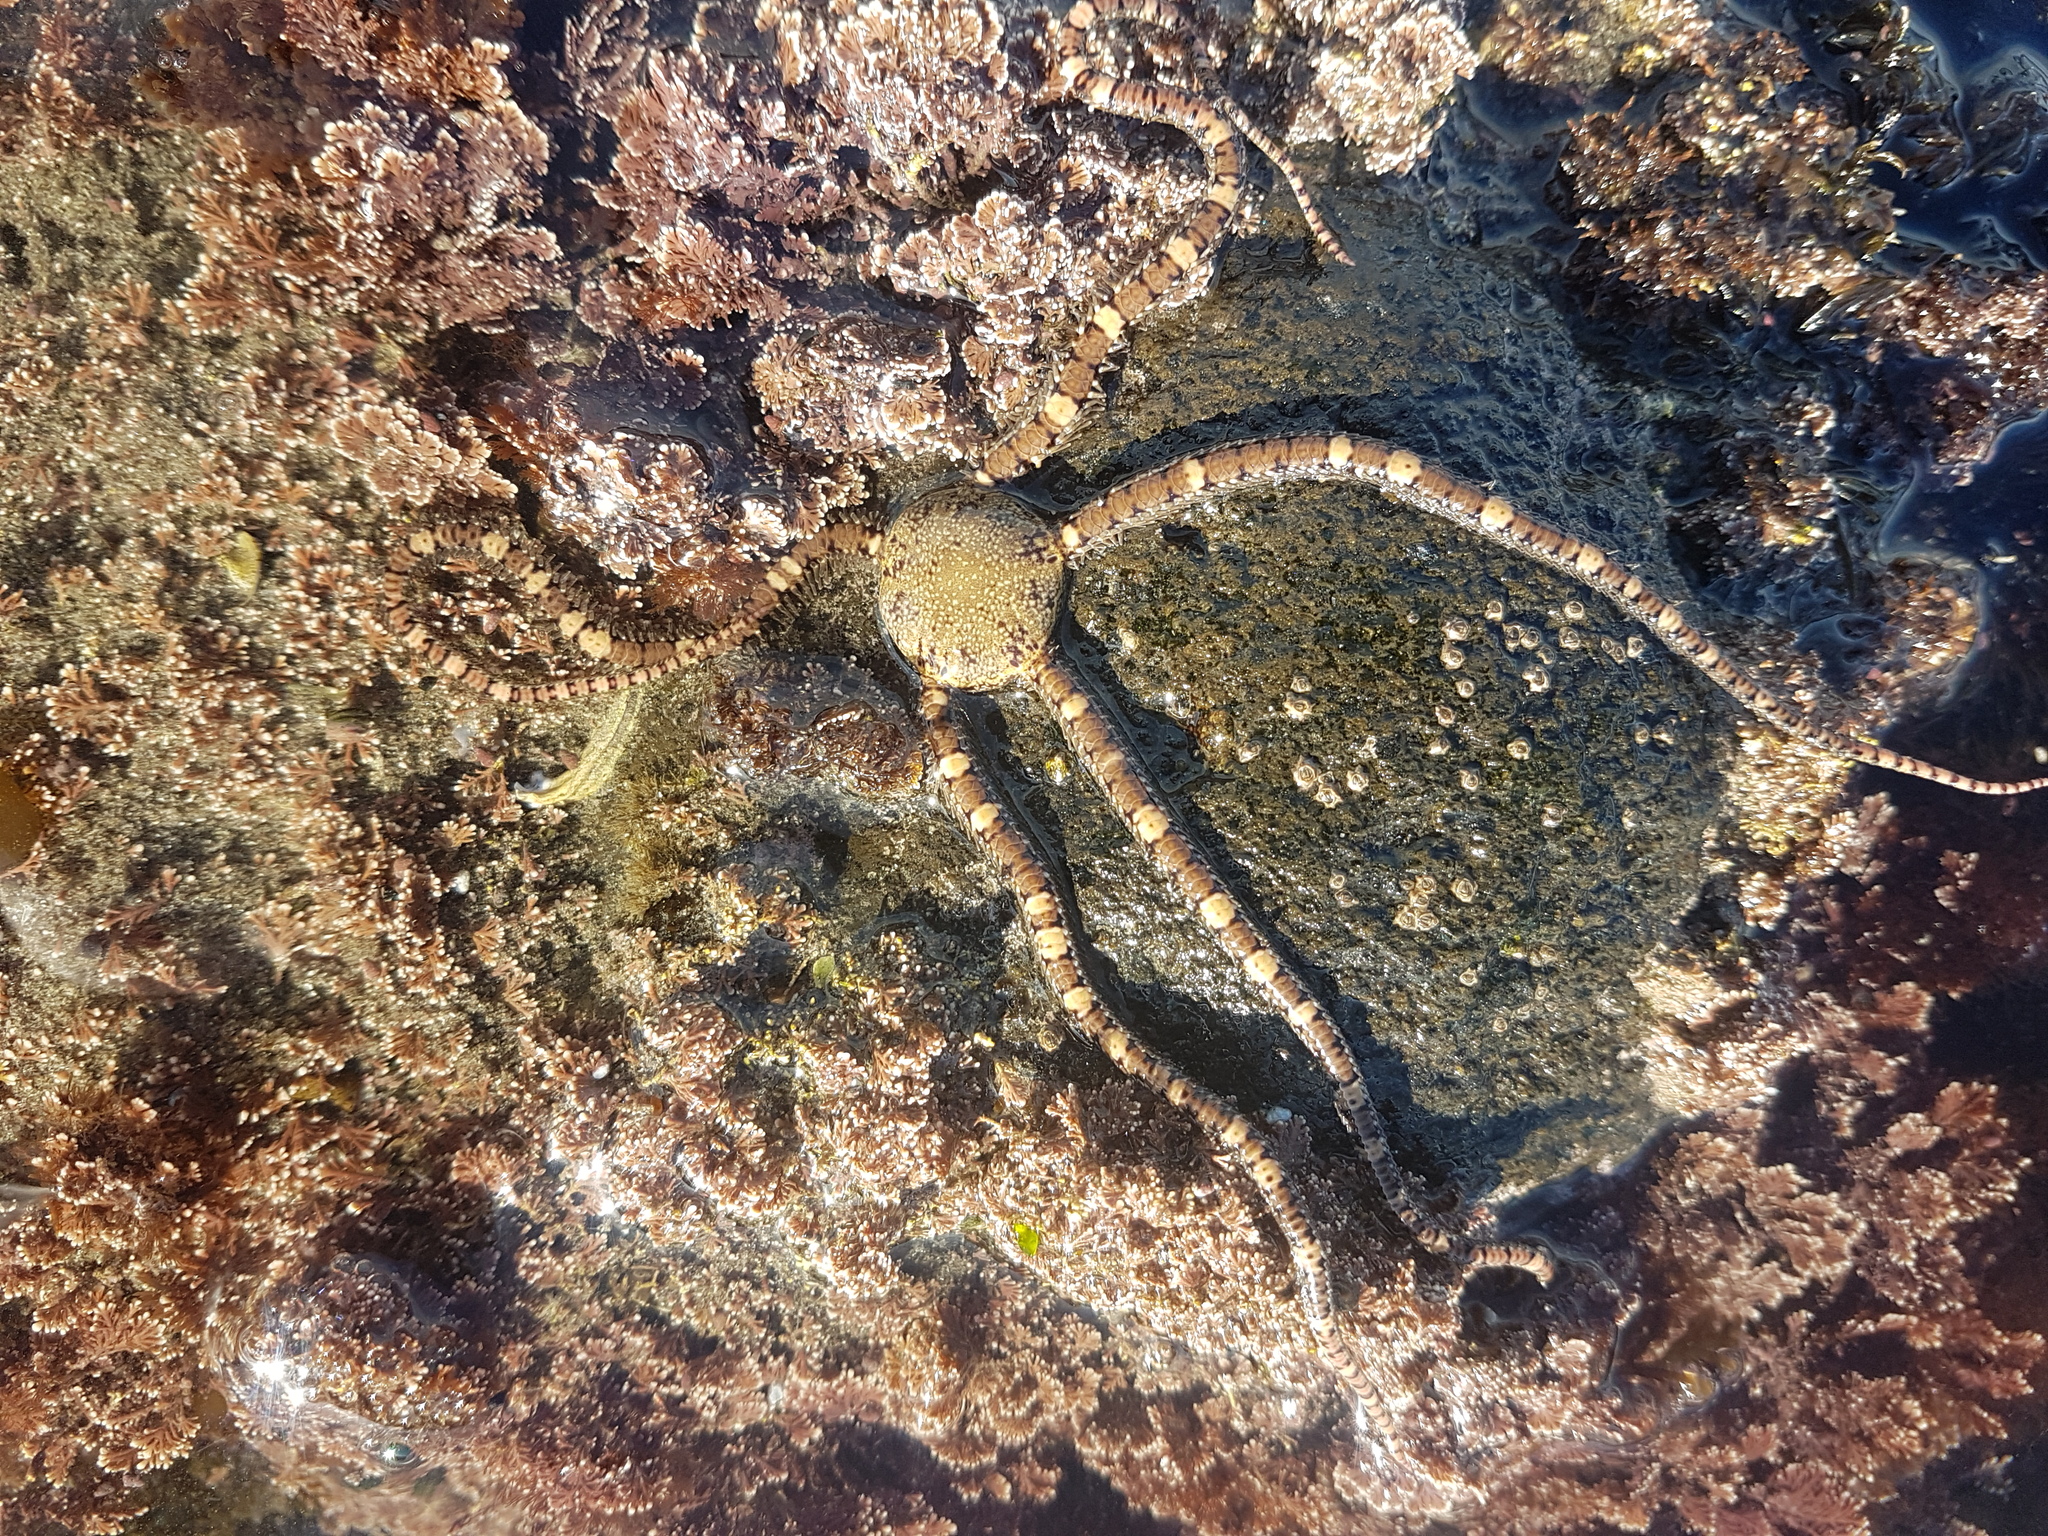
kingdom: Animalia
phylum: Echinodermata
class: Ophiuroidea
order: Amphilepidida
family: Ophionereididae
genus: Ophionereis
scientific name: Ophionereis fasciata
